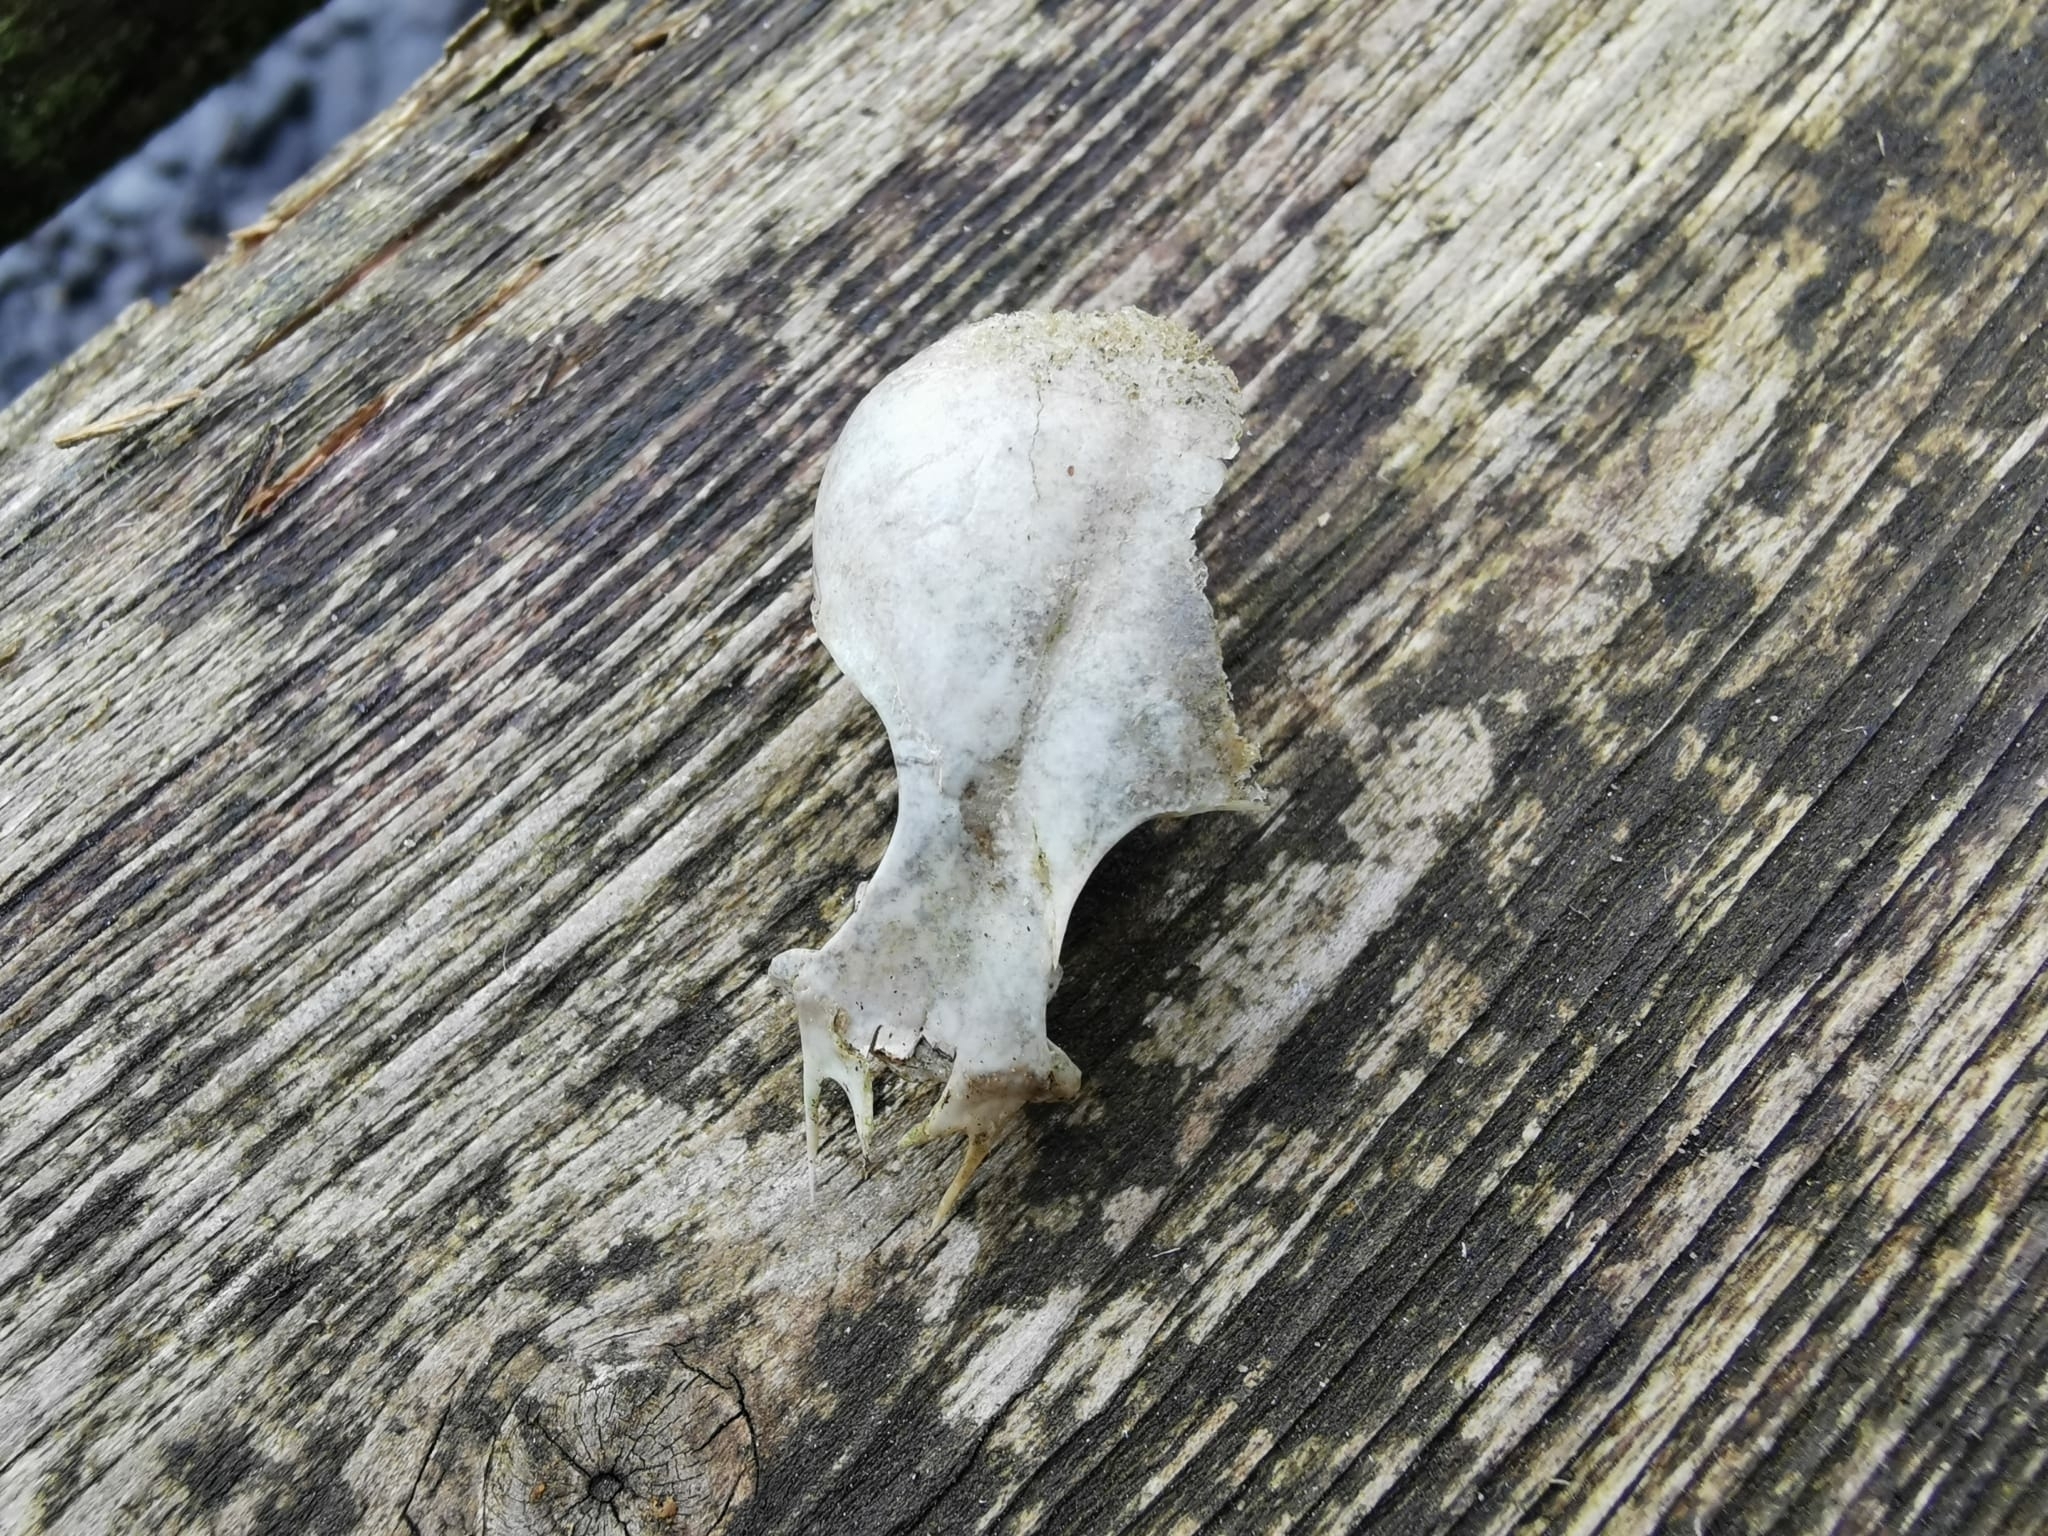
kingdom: Animalia
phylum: Chordata
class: Aves
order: Passeriformes
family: Sturnidae
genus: Sturnus
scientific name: Sturnus vulgaris
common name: Common starling
